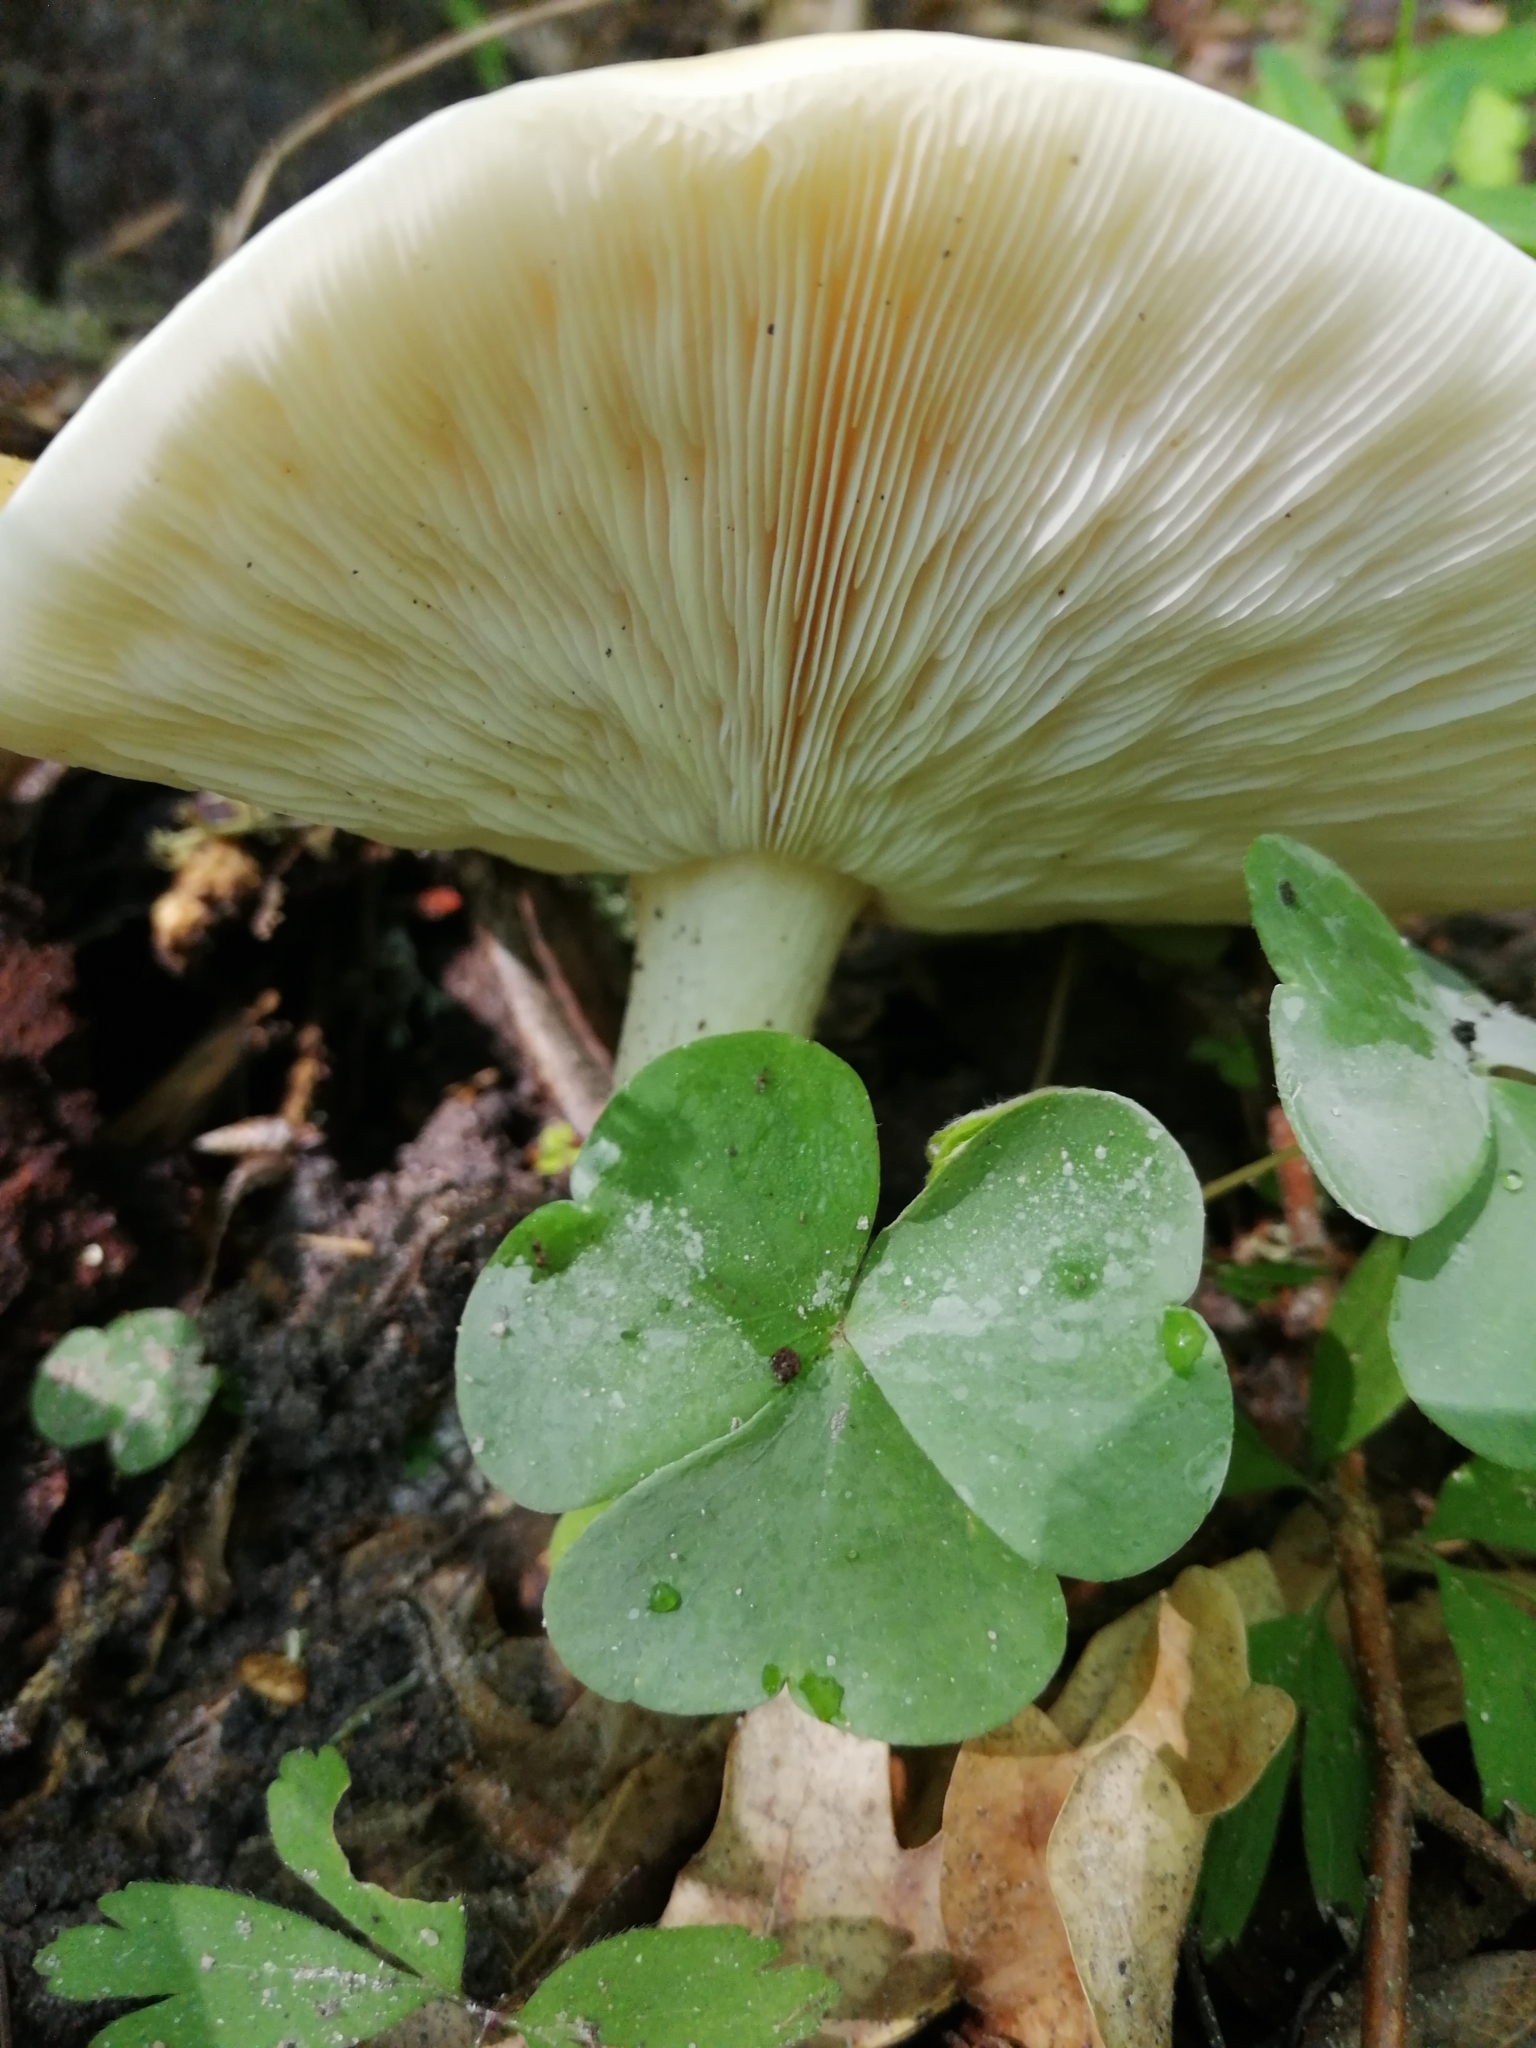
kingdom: Fungi
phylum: Basidiomycota
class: Agaricomycetes
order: Agaricales
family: Tricholomataceae
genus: Melanoleuca
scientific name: Melanoleuca strictipes
